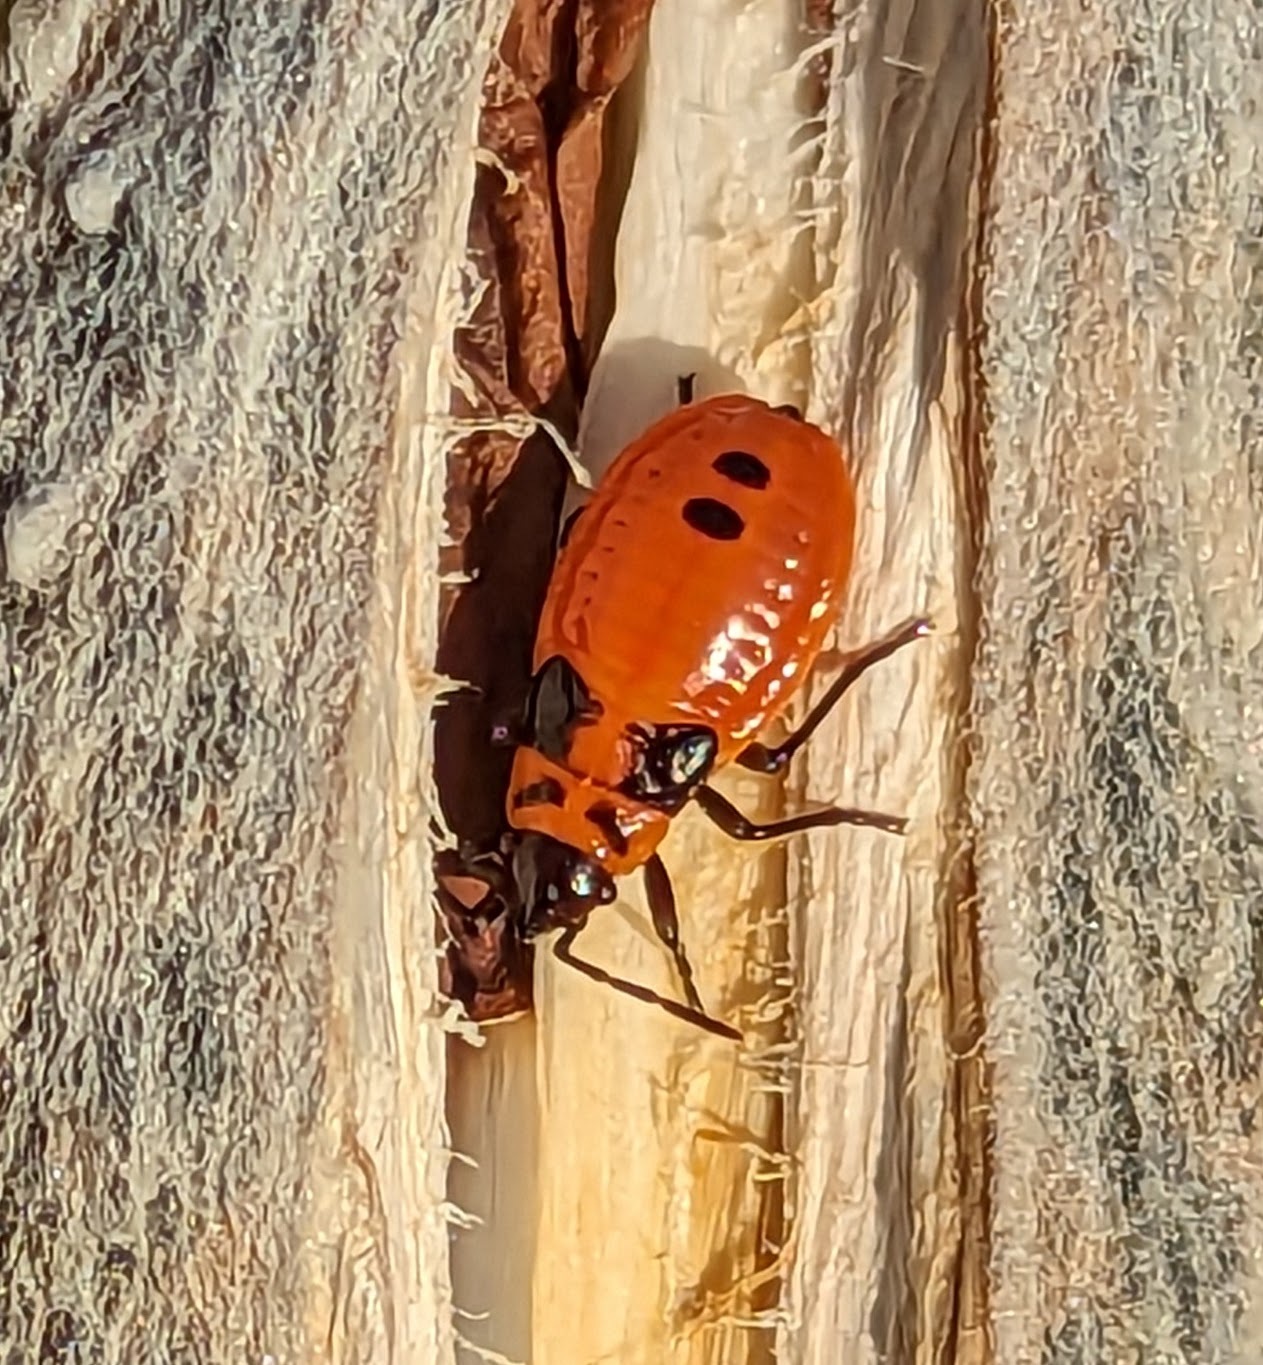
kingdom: Animalia
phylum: Arthropoda
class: Insecta
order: Hemiptera
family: Lygaeidae
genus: Lygaeus
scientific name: Lygaeus turcicus
